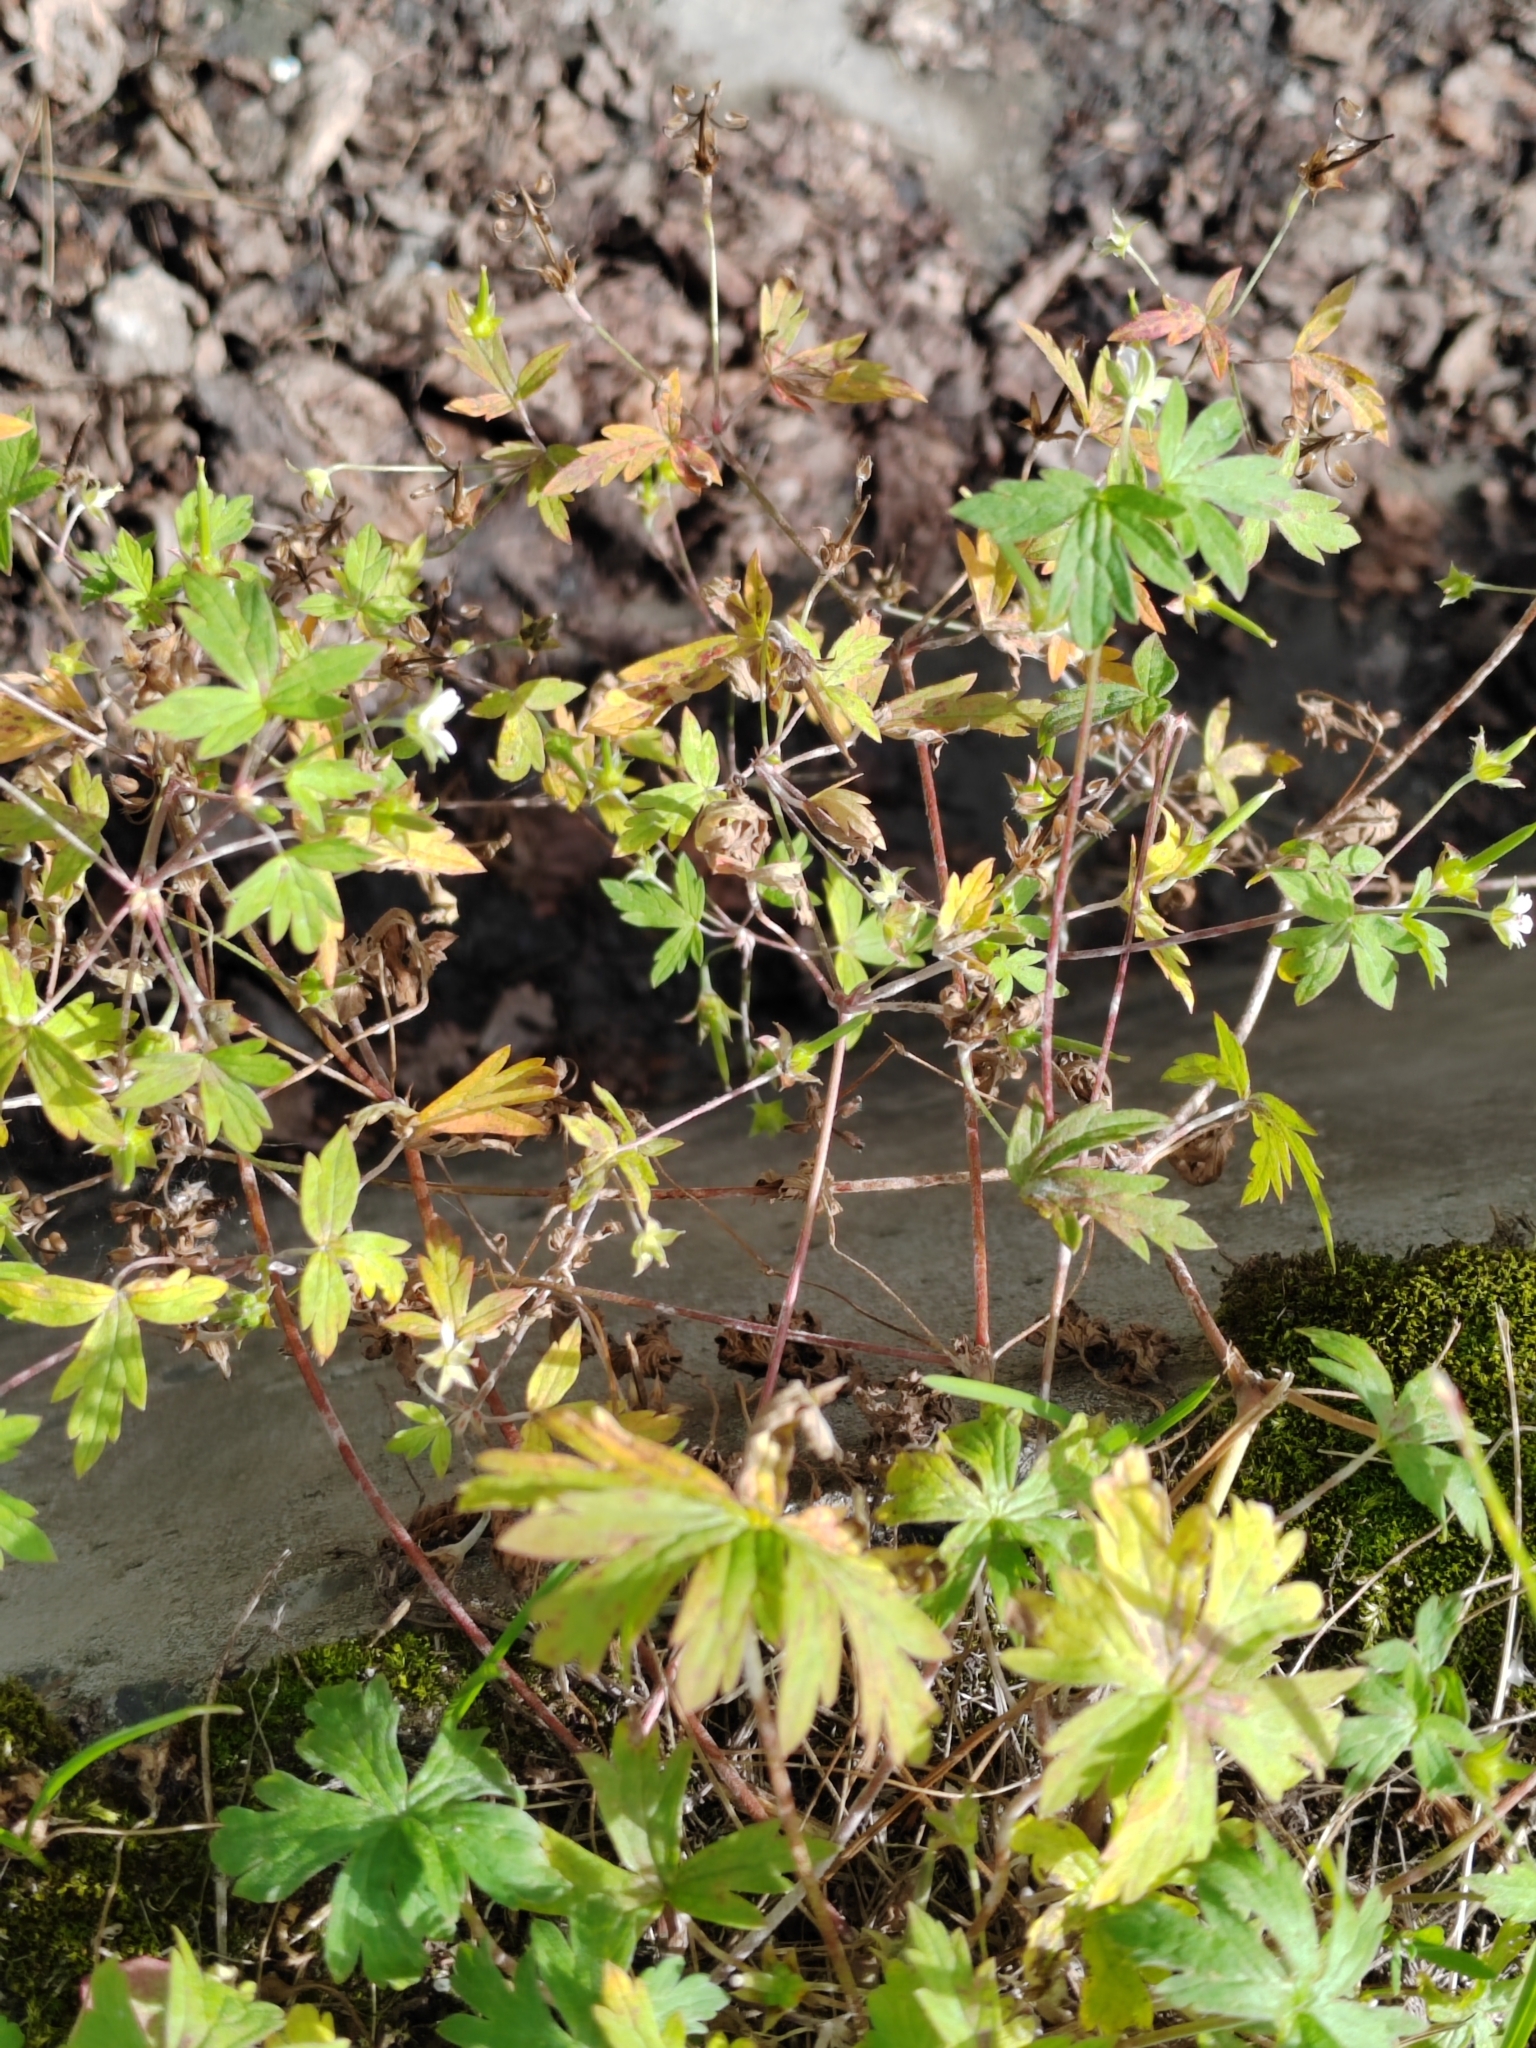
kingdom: Plantae
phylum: Tracheophyta
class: Magnoliopsida
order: Geraniales
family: Geraniaceae
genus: Geranium
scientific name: Geranium sibiricum
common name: Siberian crane's-bill
